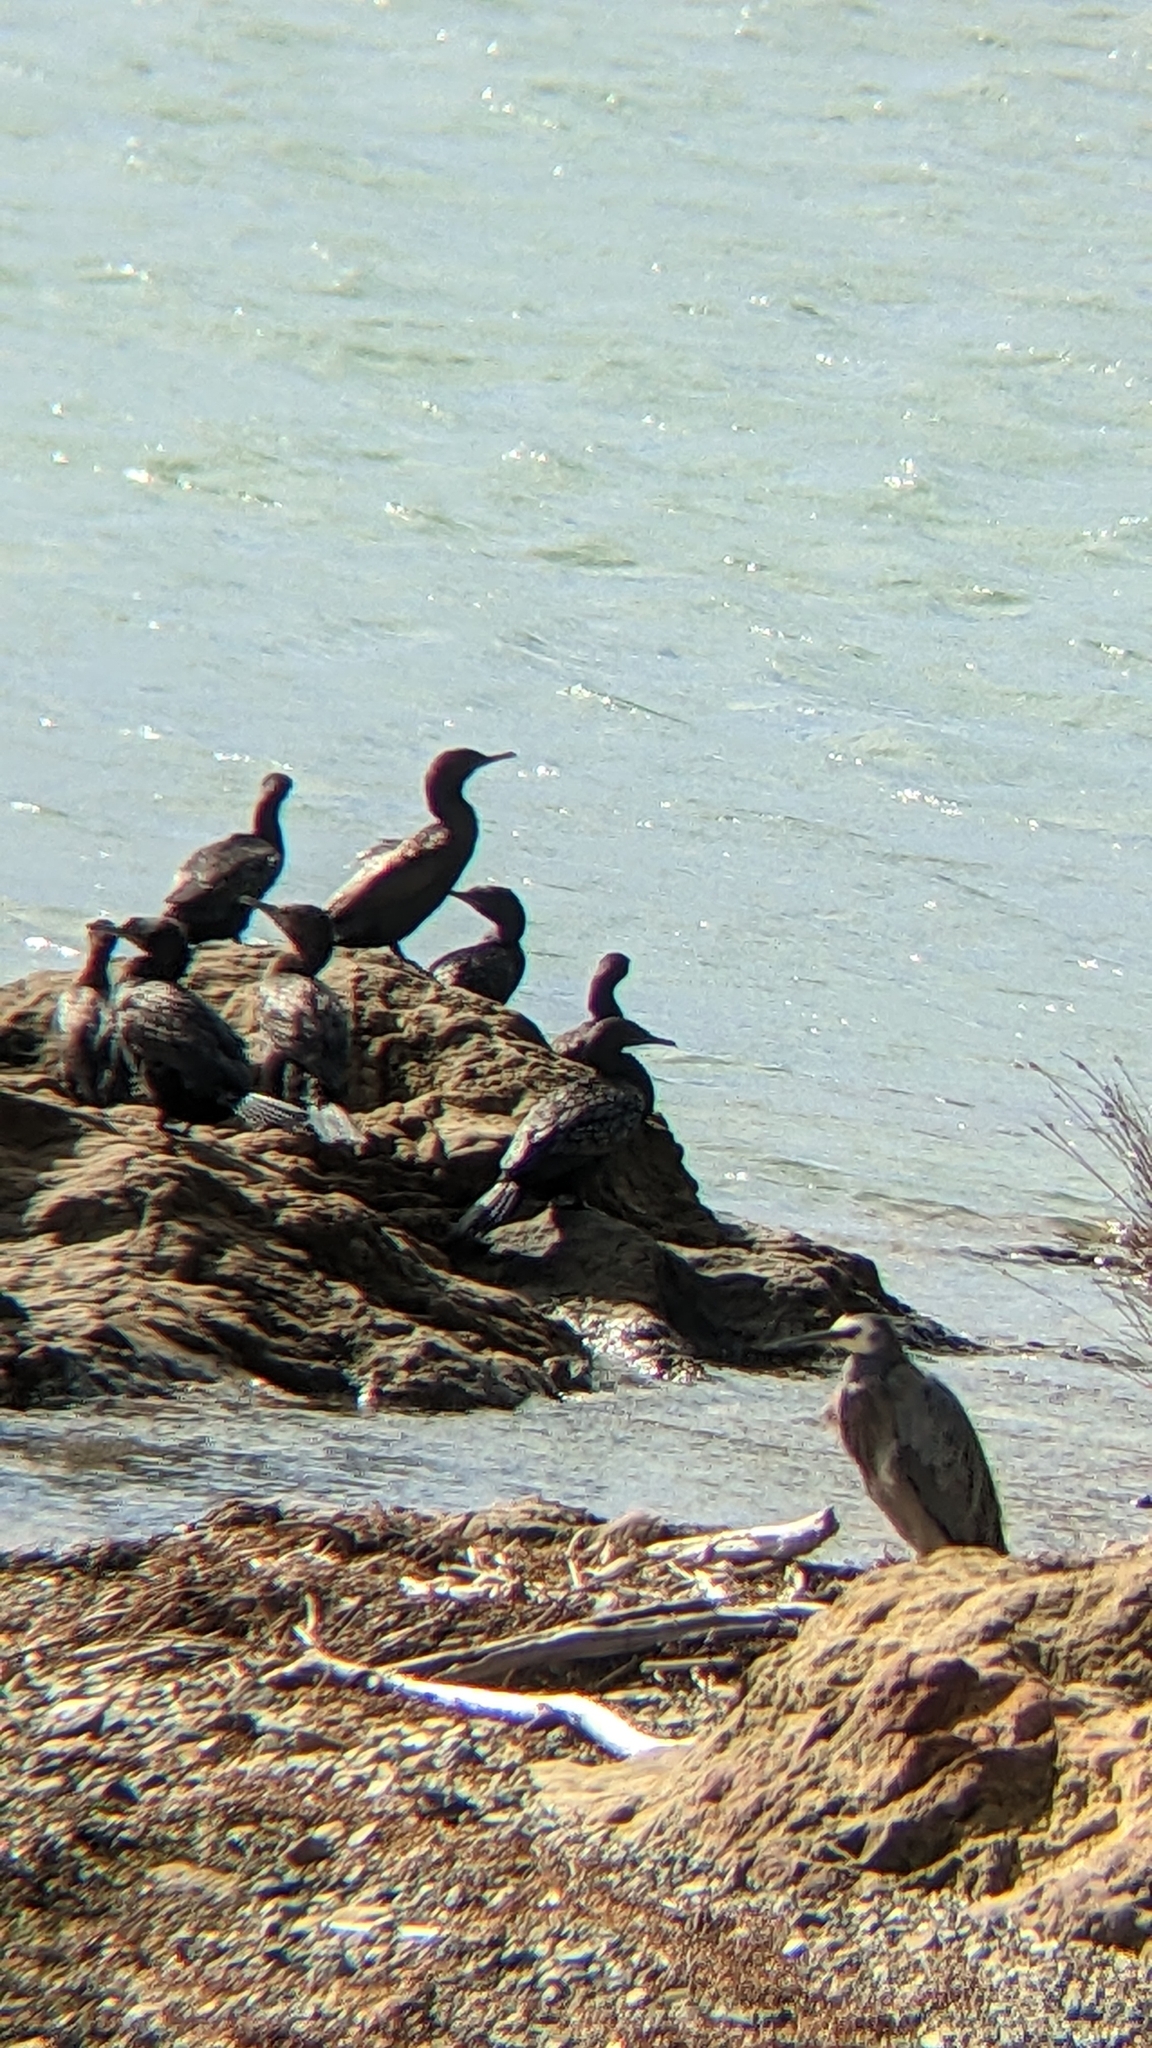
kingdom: Animalia
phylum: Chordata
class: Aves
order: Suliformes
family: Phalacrocoracidae
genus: Phalacrocorax
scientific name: Phalacrocorax sulcirostris
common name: Little black cormorant
